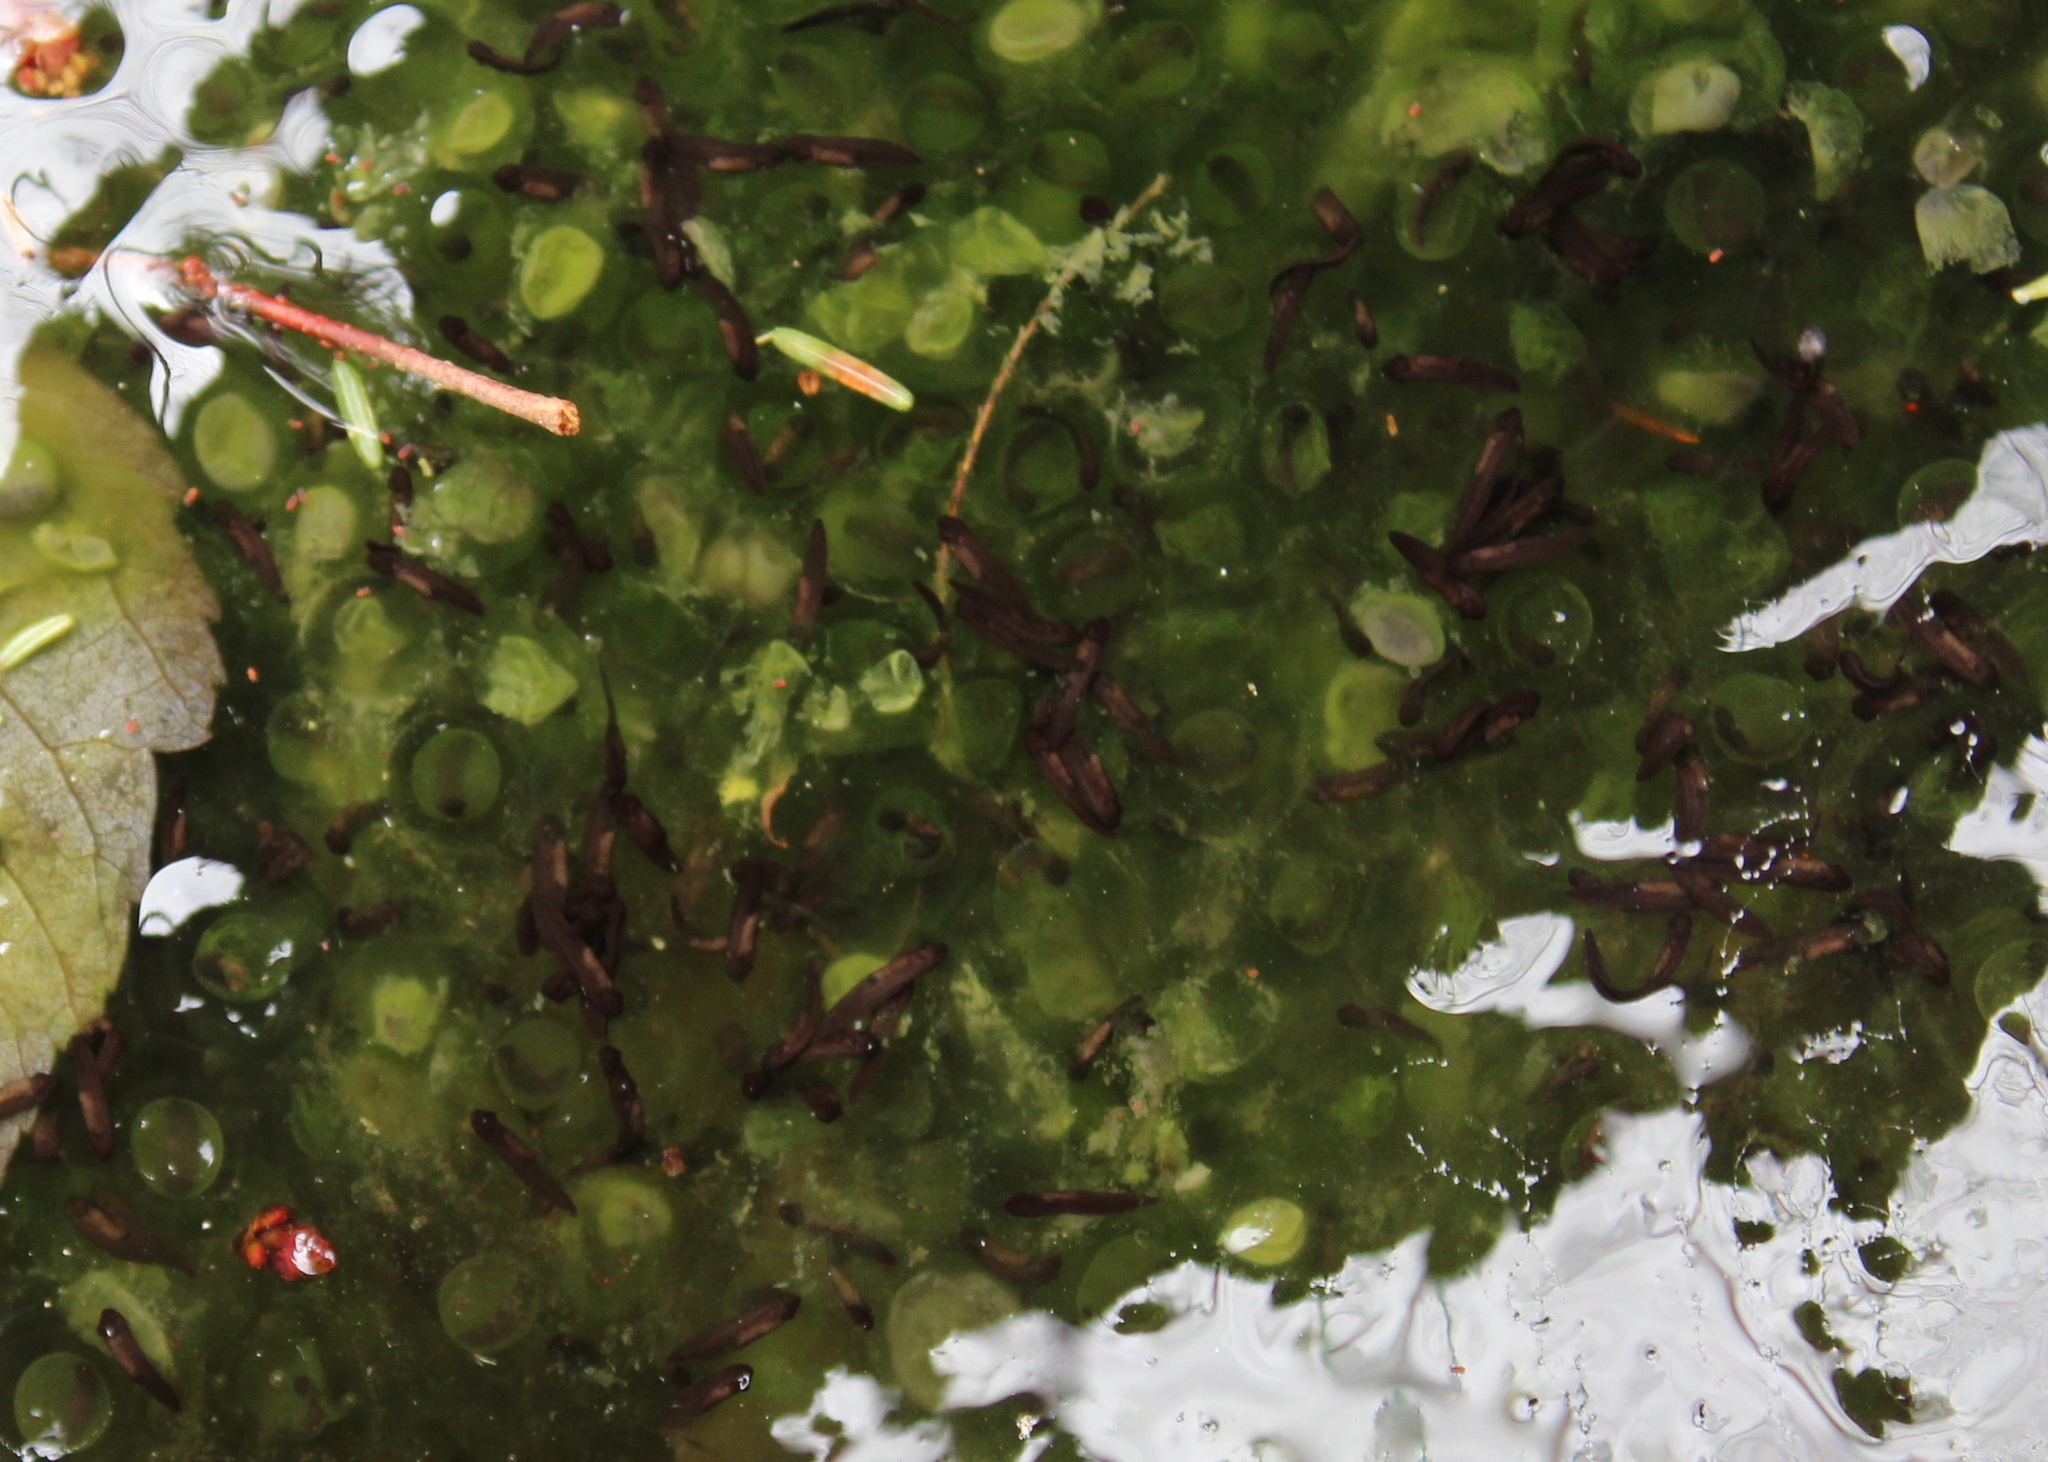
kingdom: Animalia
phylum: Chordata
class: Amphibia
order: Anura
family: Ranidae
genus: Lithobates
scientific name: Lithobates sylvaticus
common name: Wood frog
